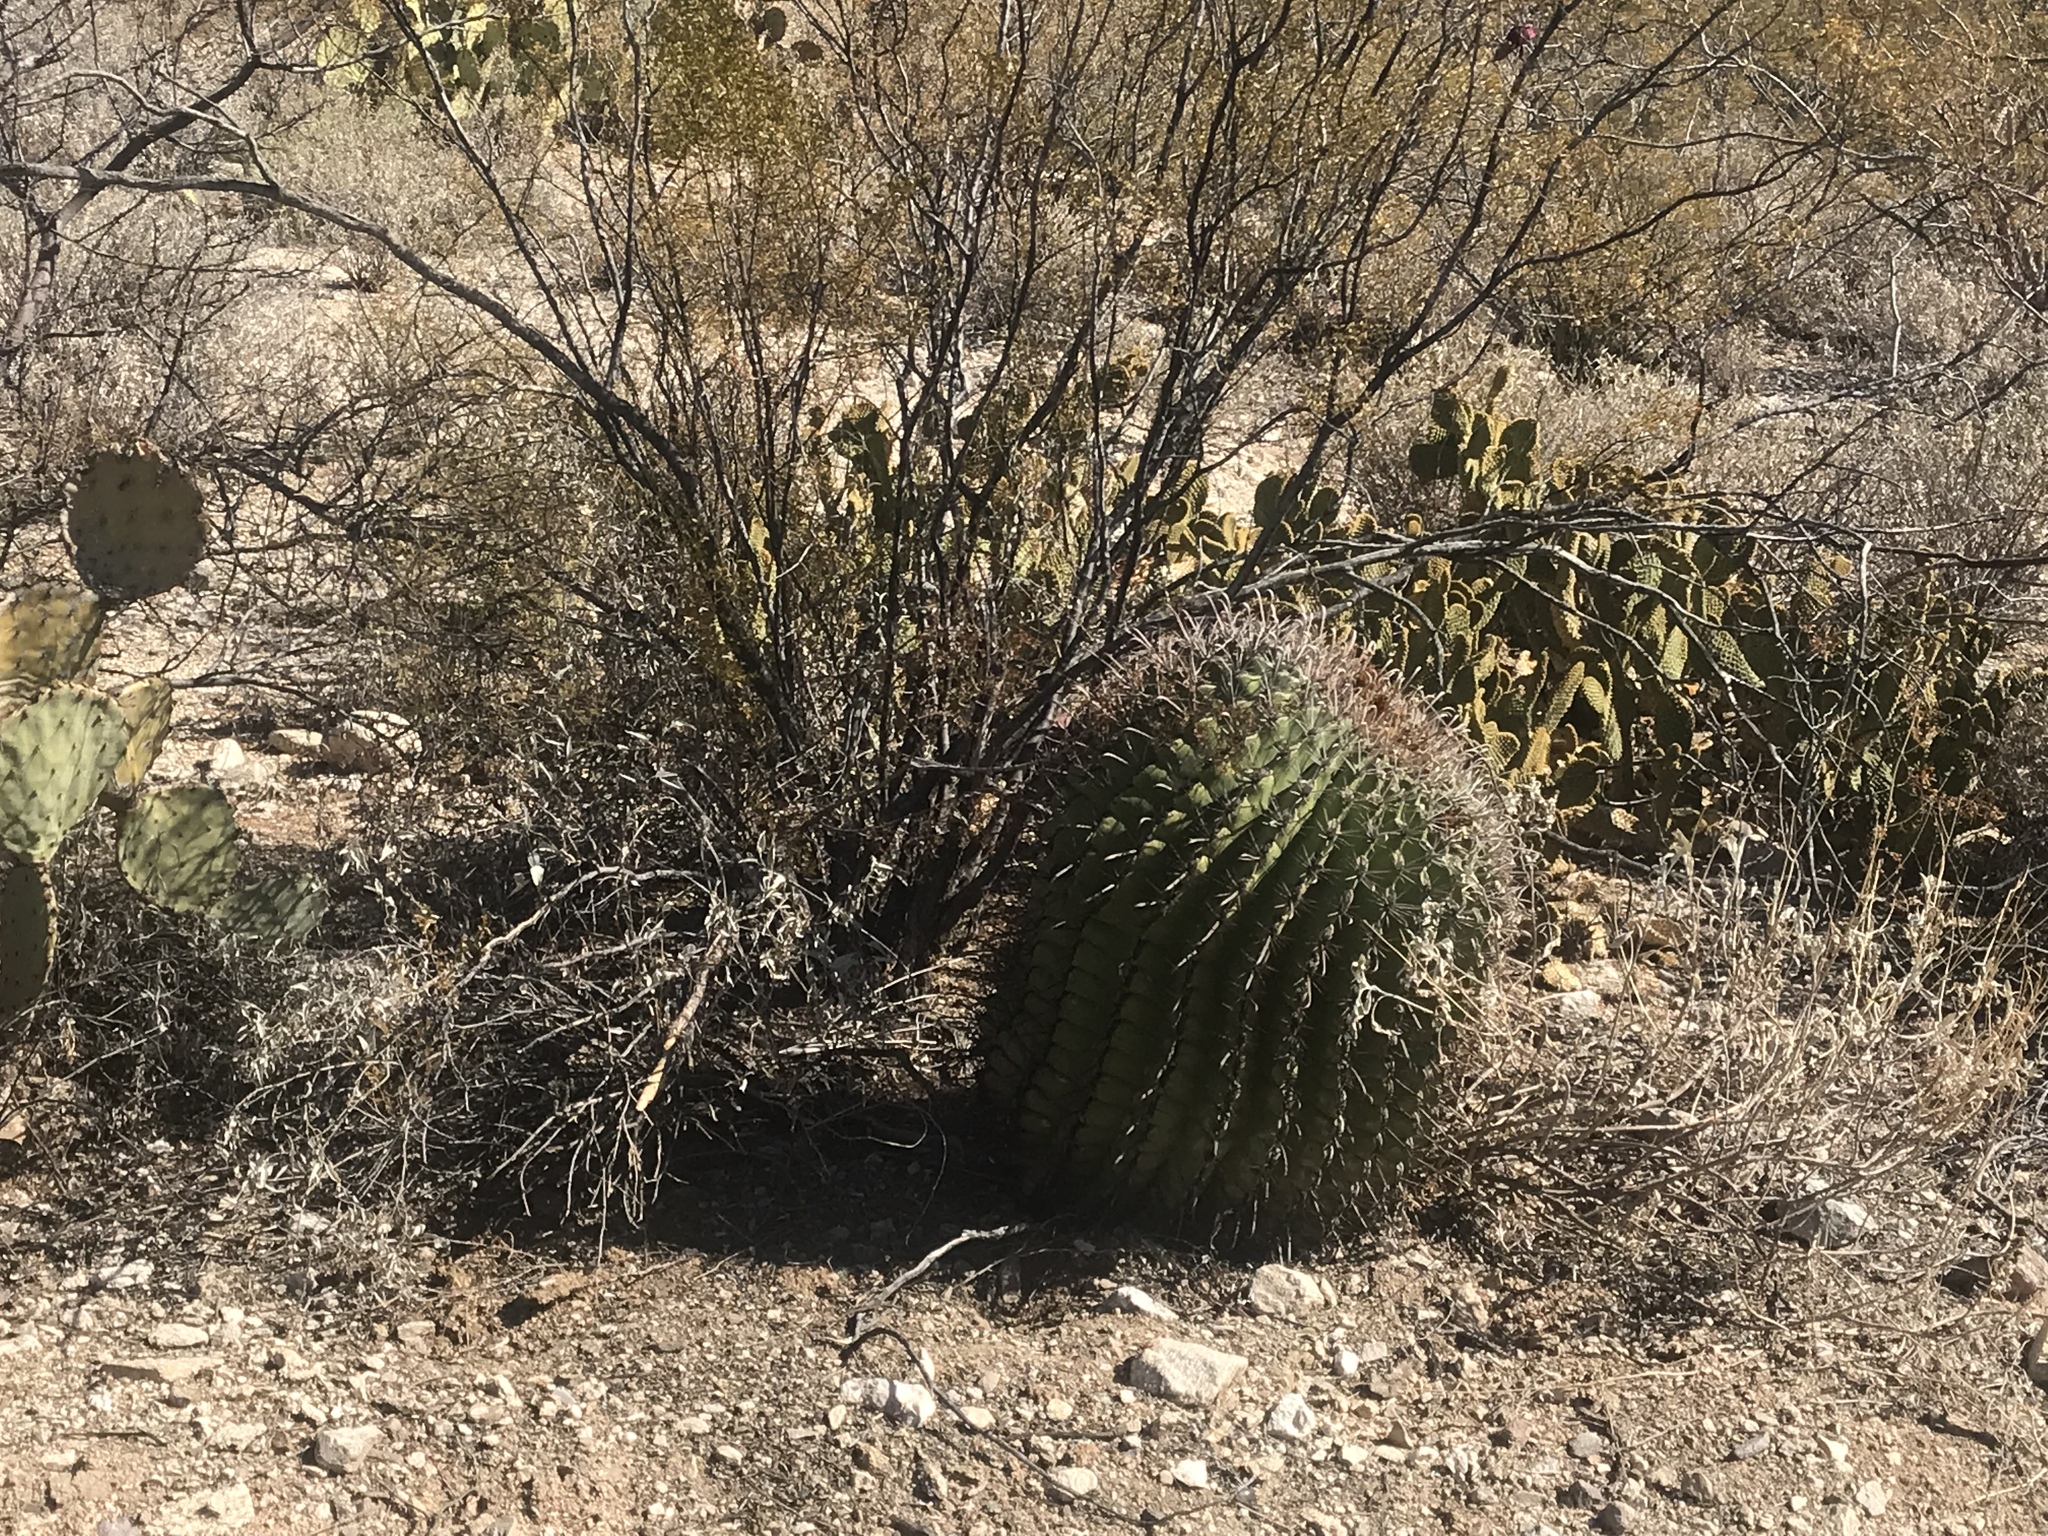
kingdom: Plantae
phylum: Tracheophyta
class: Magnoliopsida
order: Caryophyllales
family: Cactaceae
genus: Ferocactus
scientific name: Ferocactus wislizeni
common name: Candy barrel cactus
